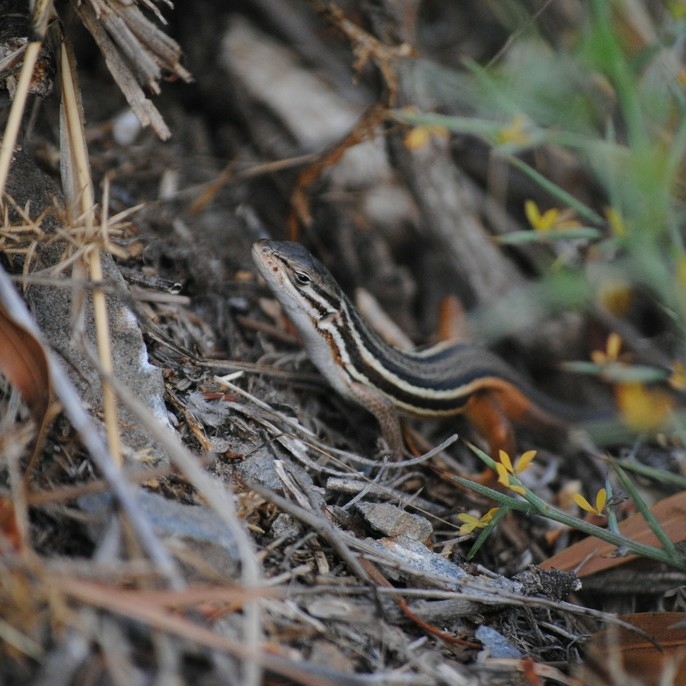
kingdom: Animalia
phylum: Chordata
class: Squamata
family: Lacertidae
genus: Psammodromus
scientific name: Psammodromus algirus
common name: Algerian psammodromus
